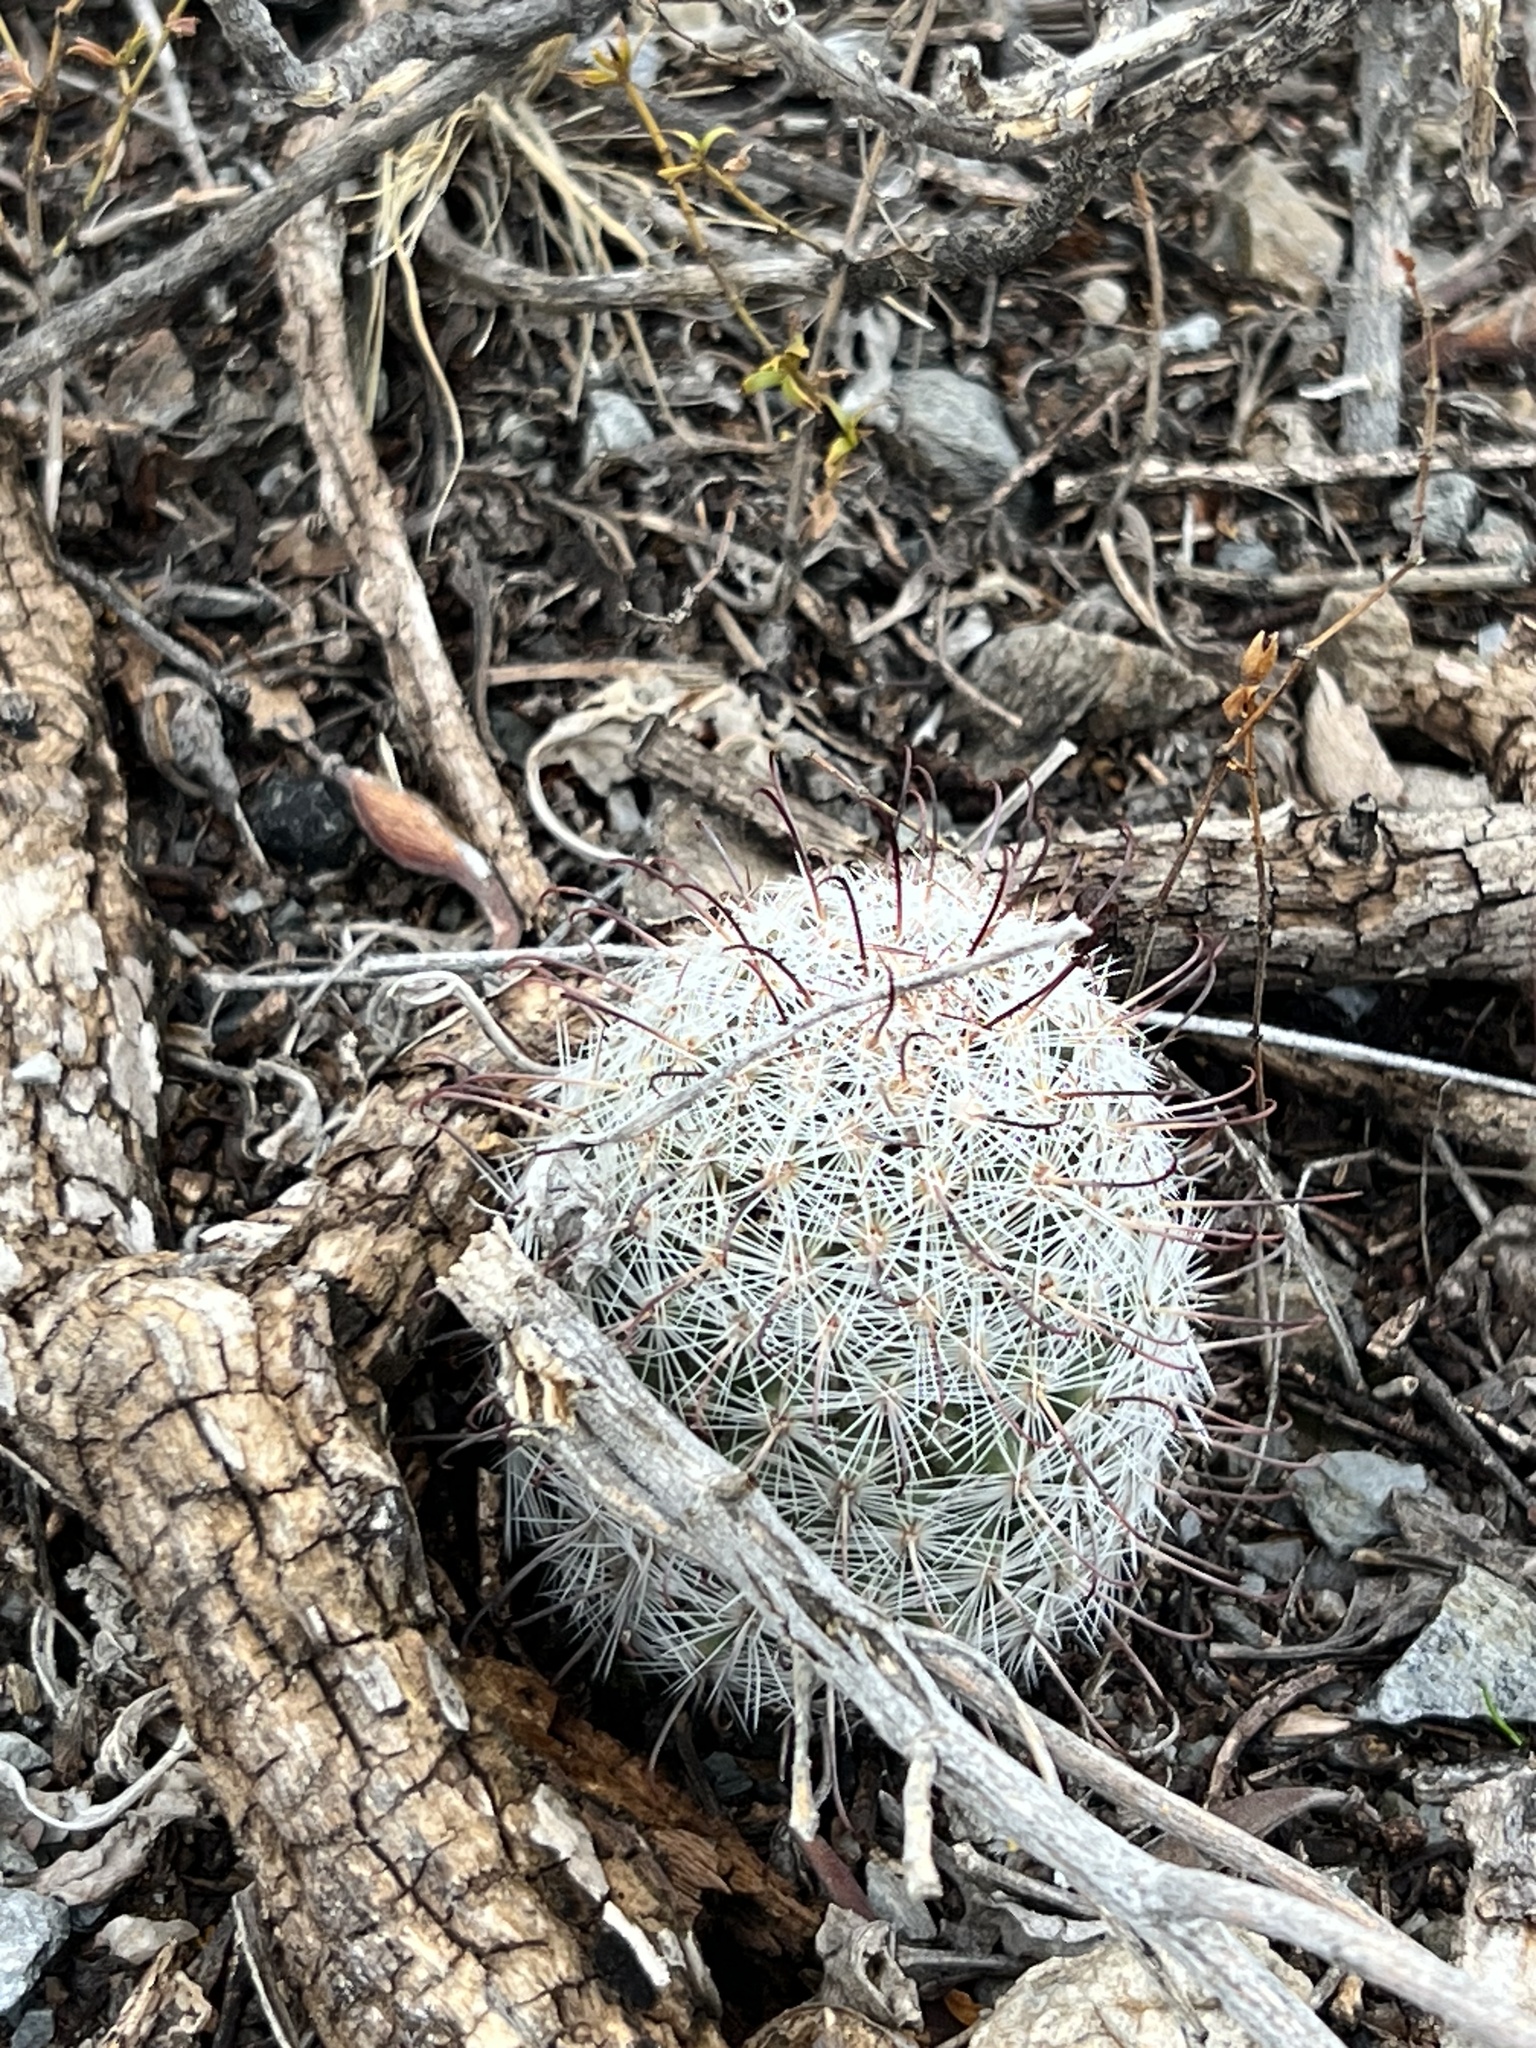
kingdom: Plantae
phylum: Tracheophyta
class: Magnoliopsida
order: Caryophyllales
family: Cactaceae
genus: Cochemiea
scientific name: Cochemiea grahamii
